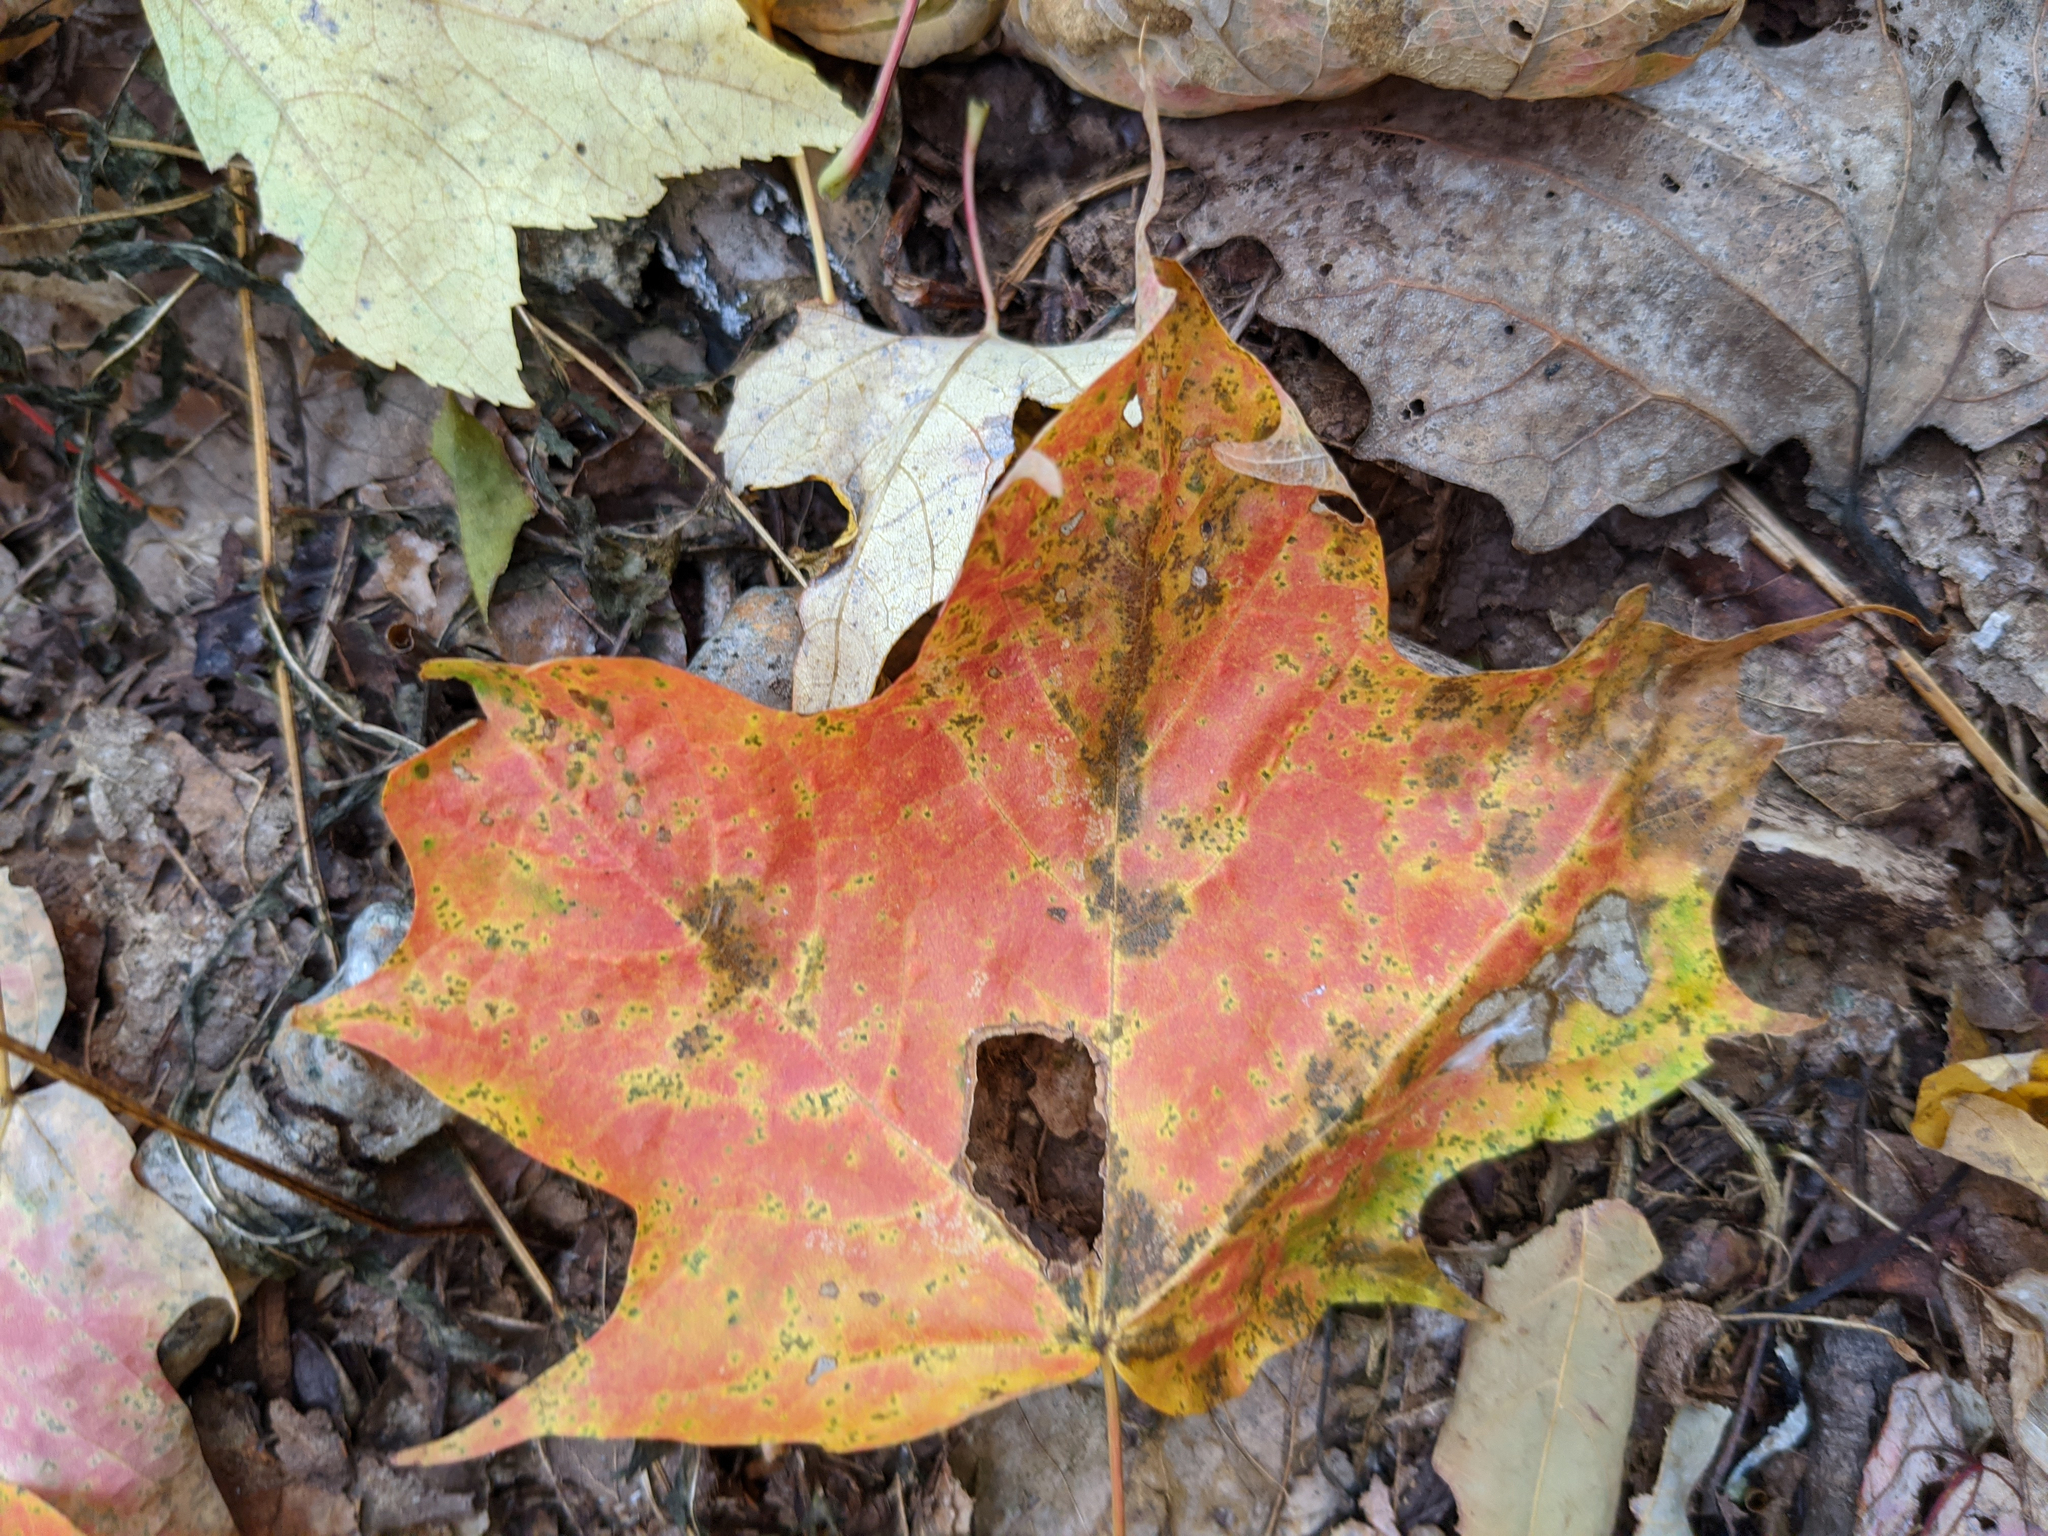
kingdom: Plantae
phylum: Tracheophyta
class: Magnoliopsida
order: Sapindales
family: Sapindaceae
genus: Acer
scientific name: Acer saccharum
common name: Sugar maple
